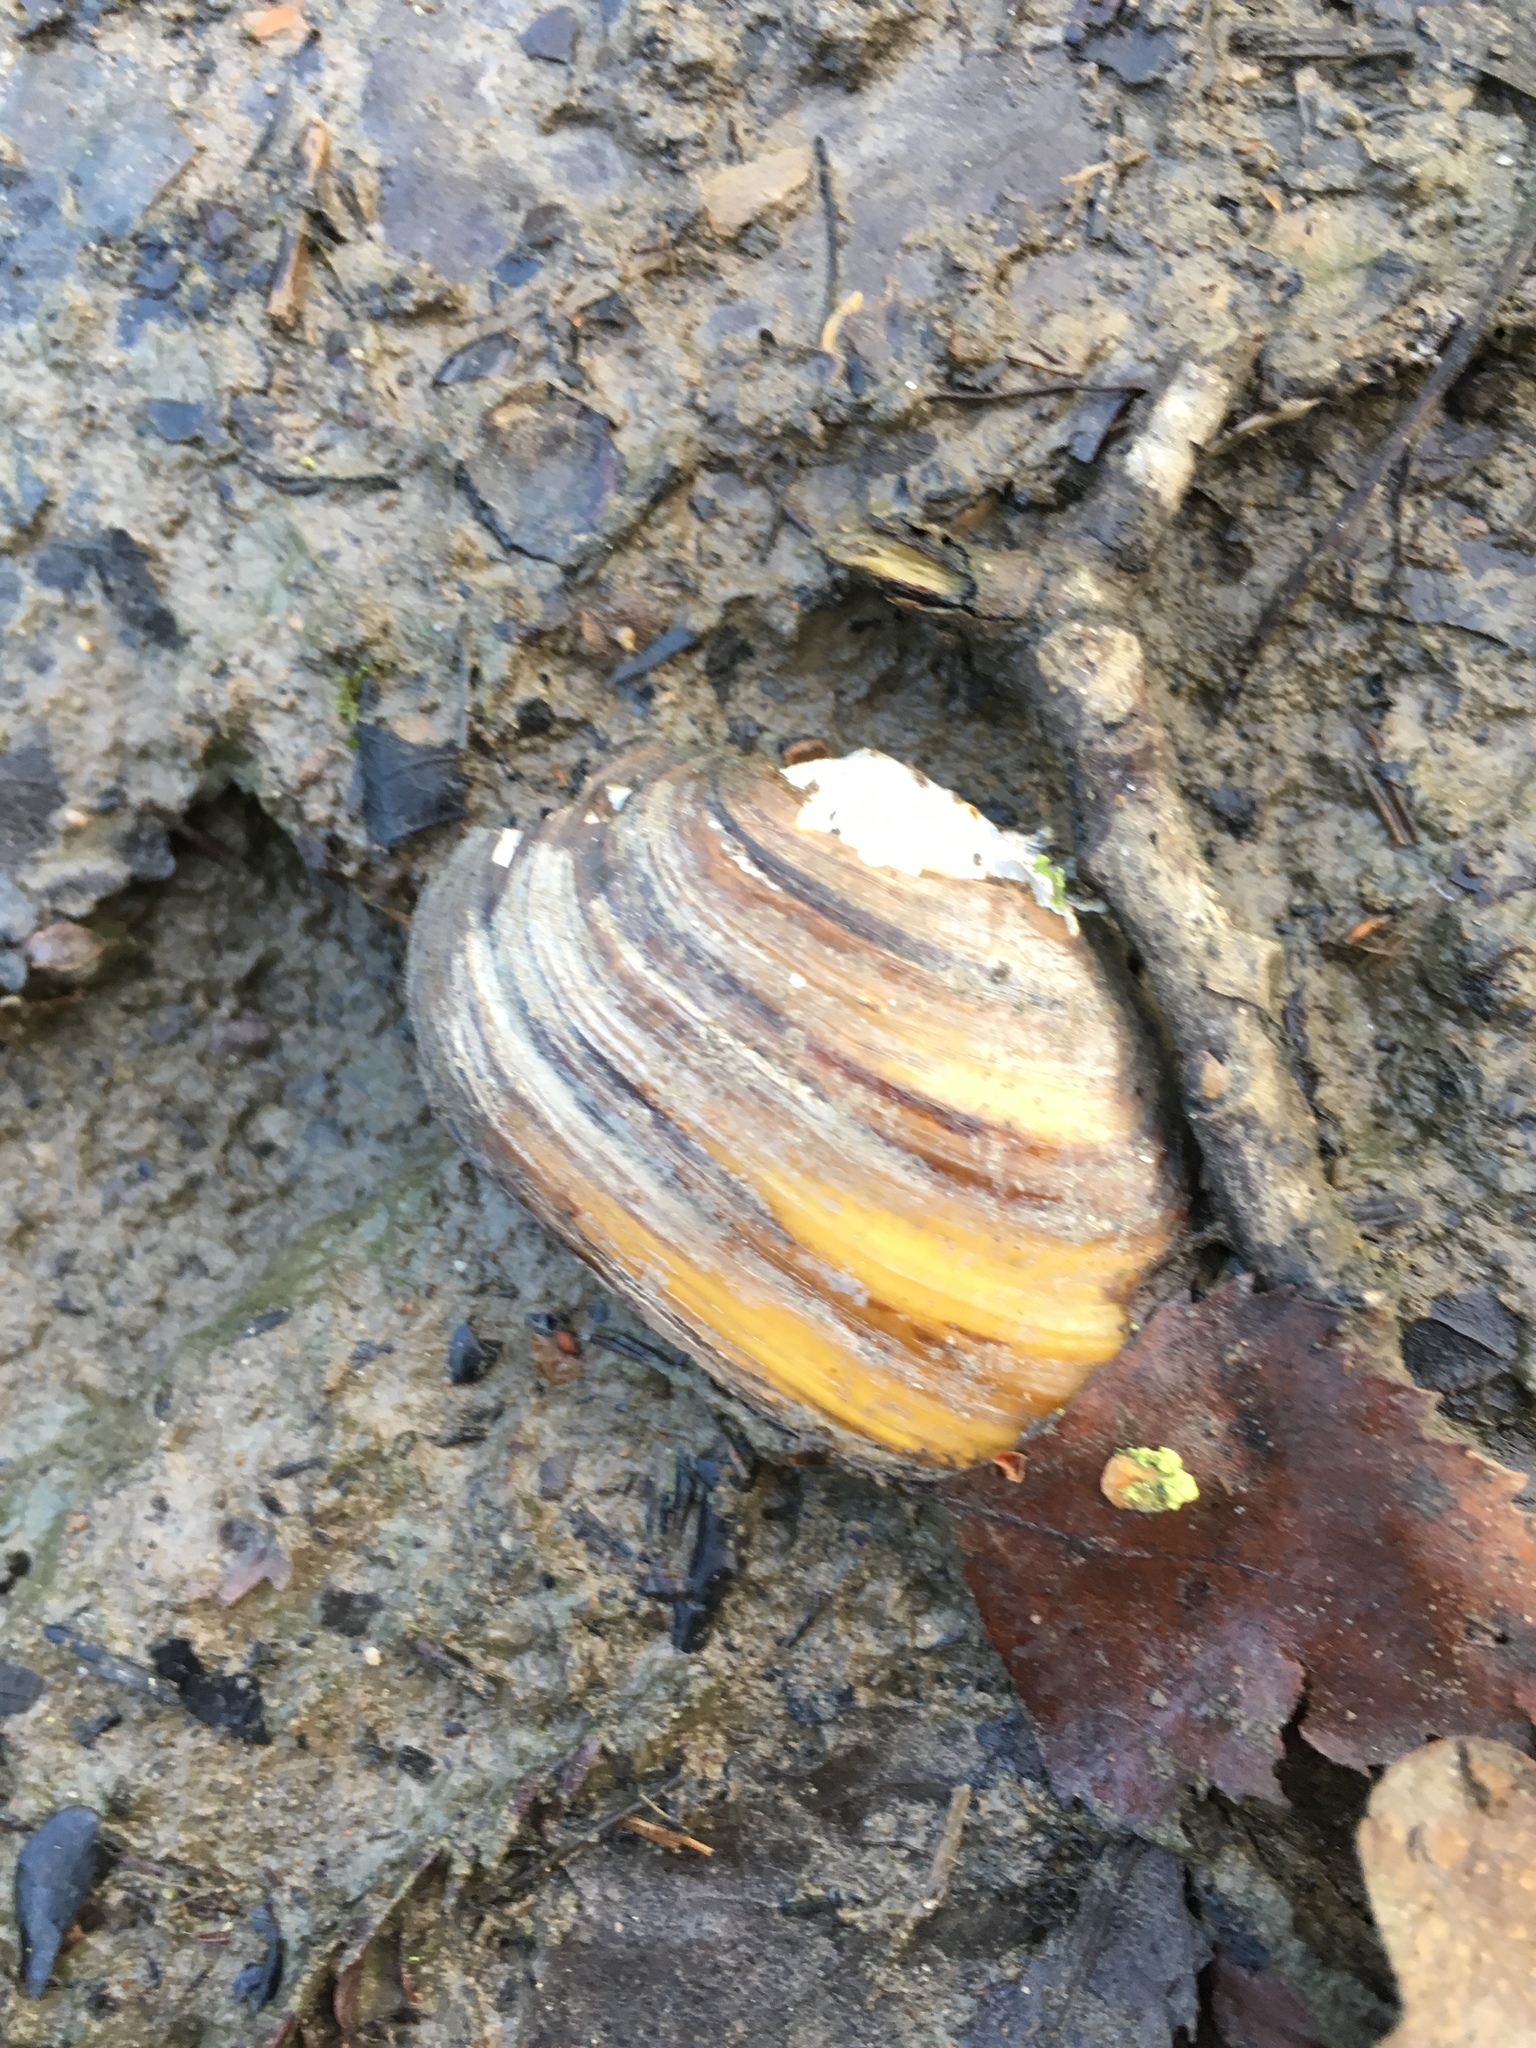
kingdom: Animalia
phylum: Mollusca
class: Bivalvia
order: Unionida
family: Unionidae
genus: Anodonta
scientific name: Anodonta anatina
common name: Duck mussel
